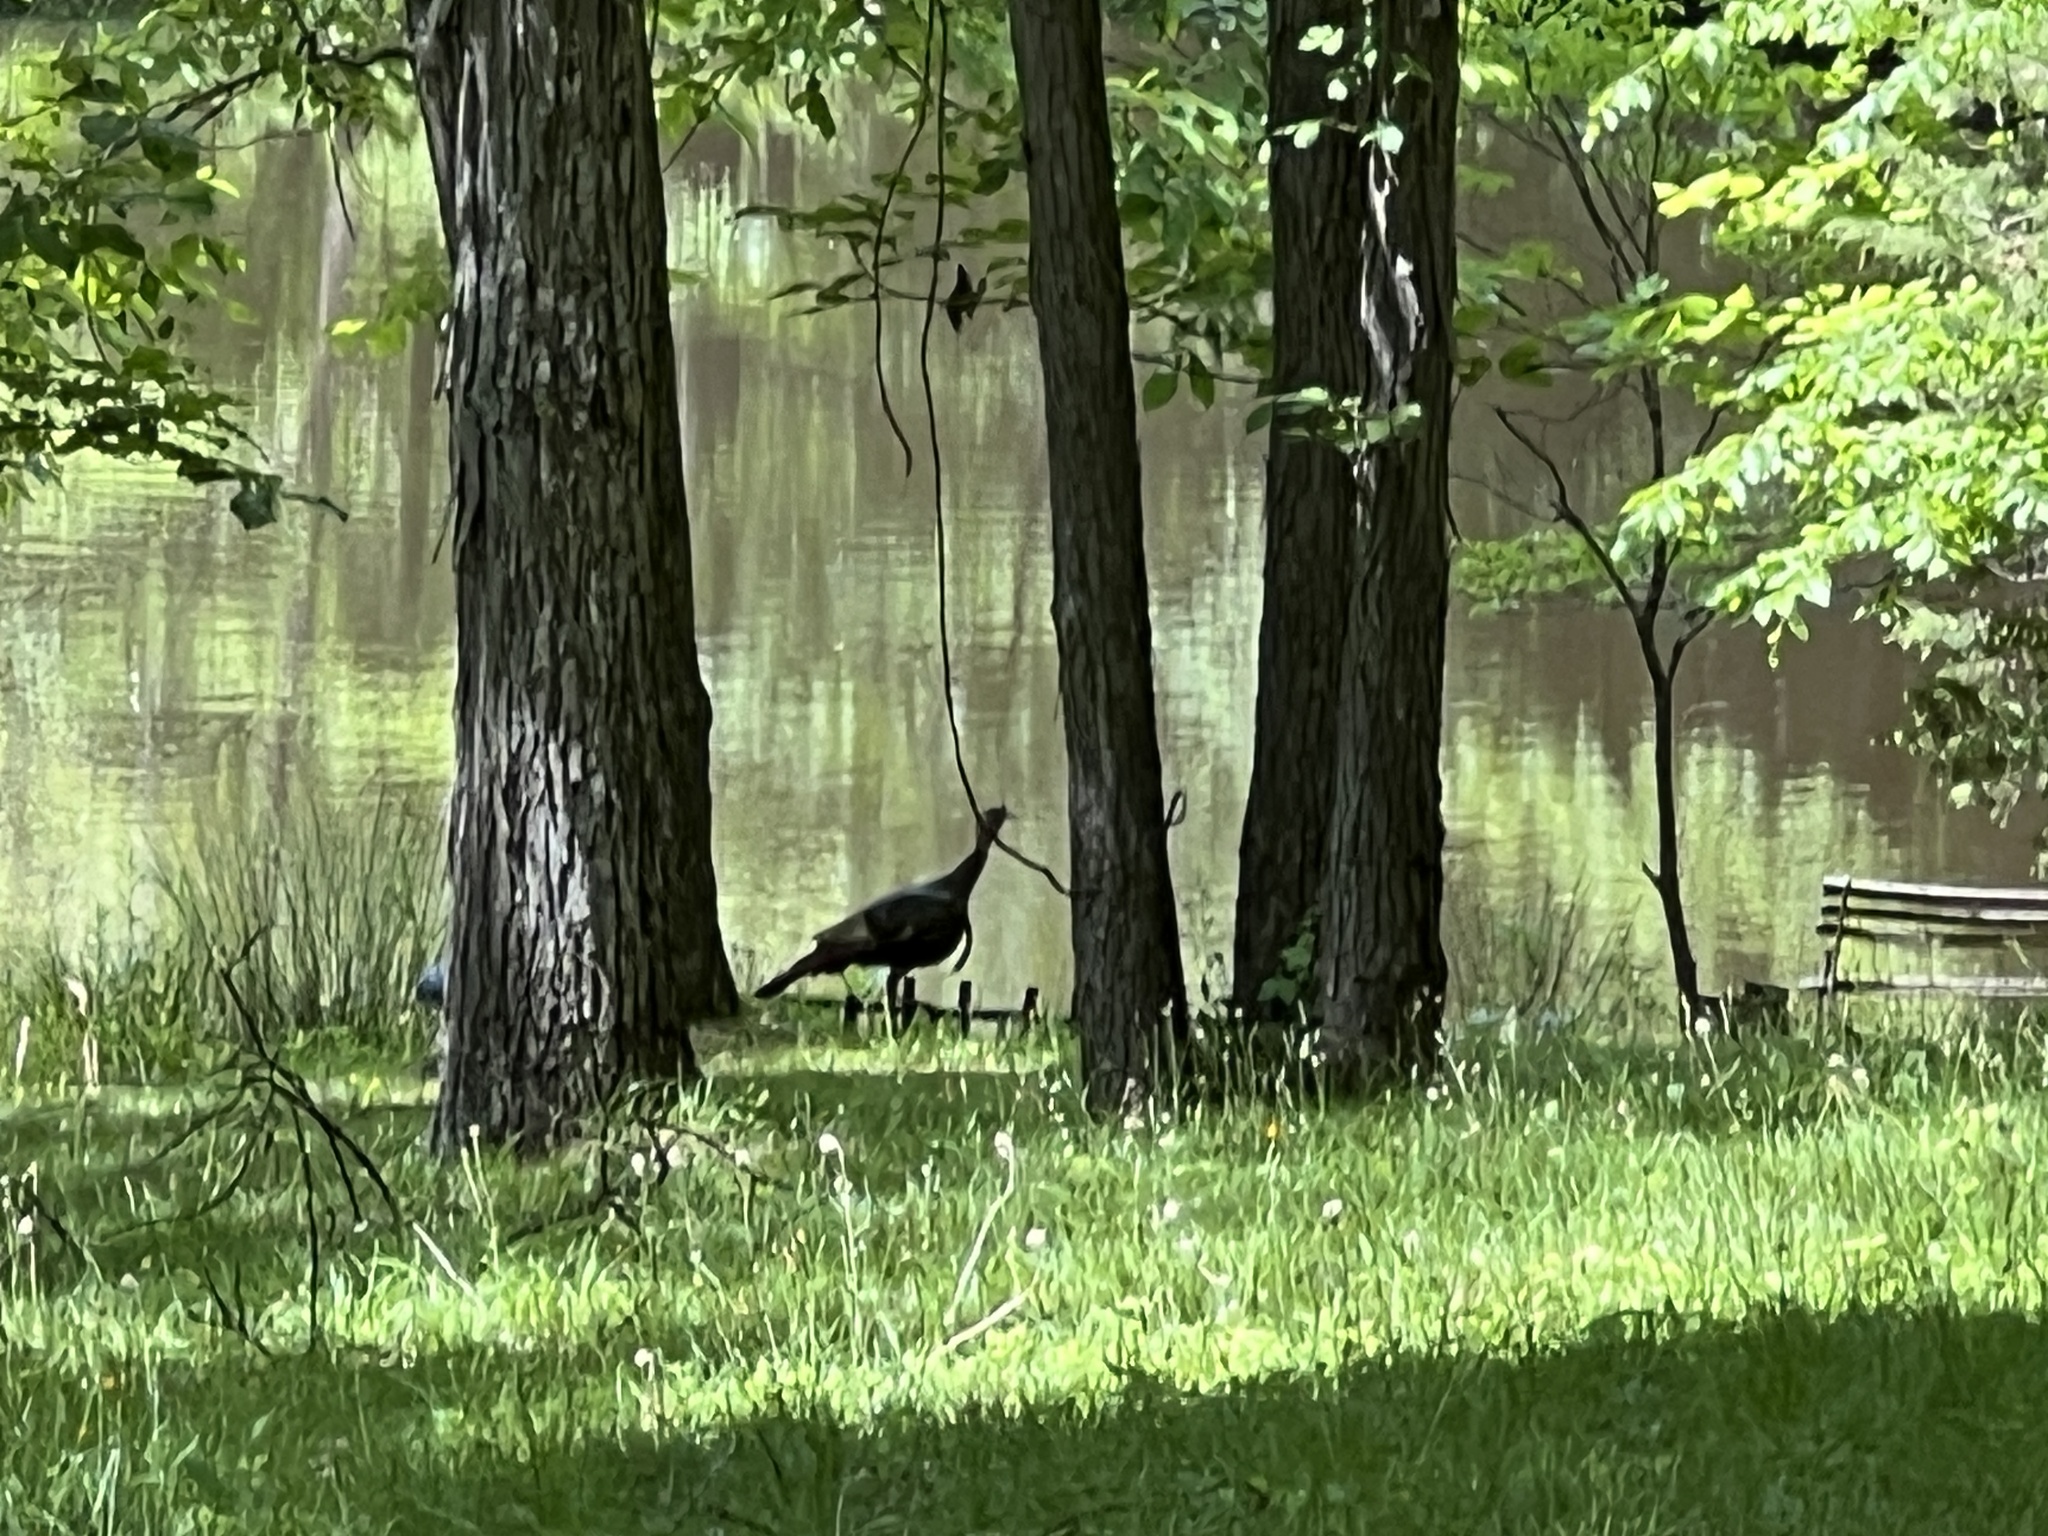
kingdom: Animalia
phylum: Chordata
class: Aves
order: Galliformes
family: Phasianidae
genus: Meleagris
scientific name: Meleagris gallopavo
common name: Wild turkey
